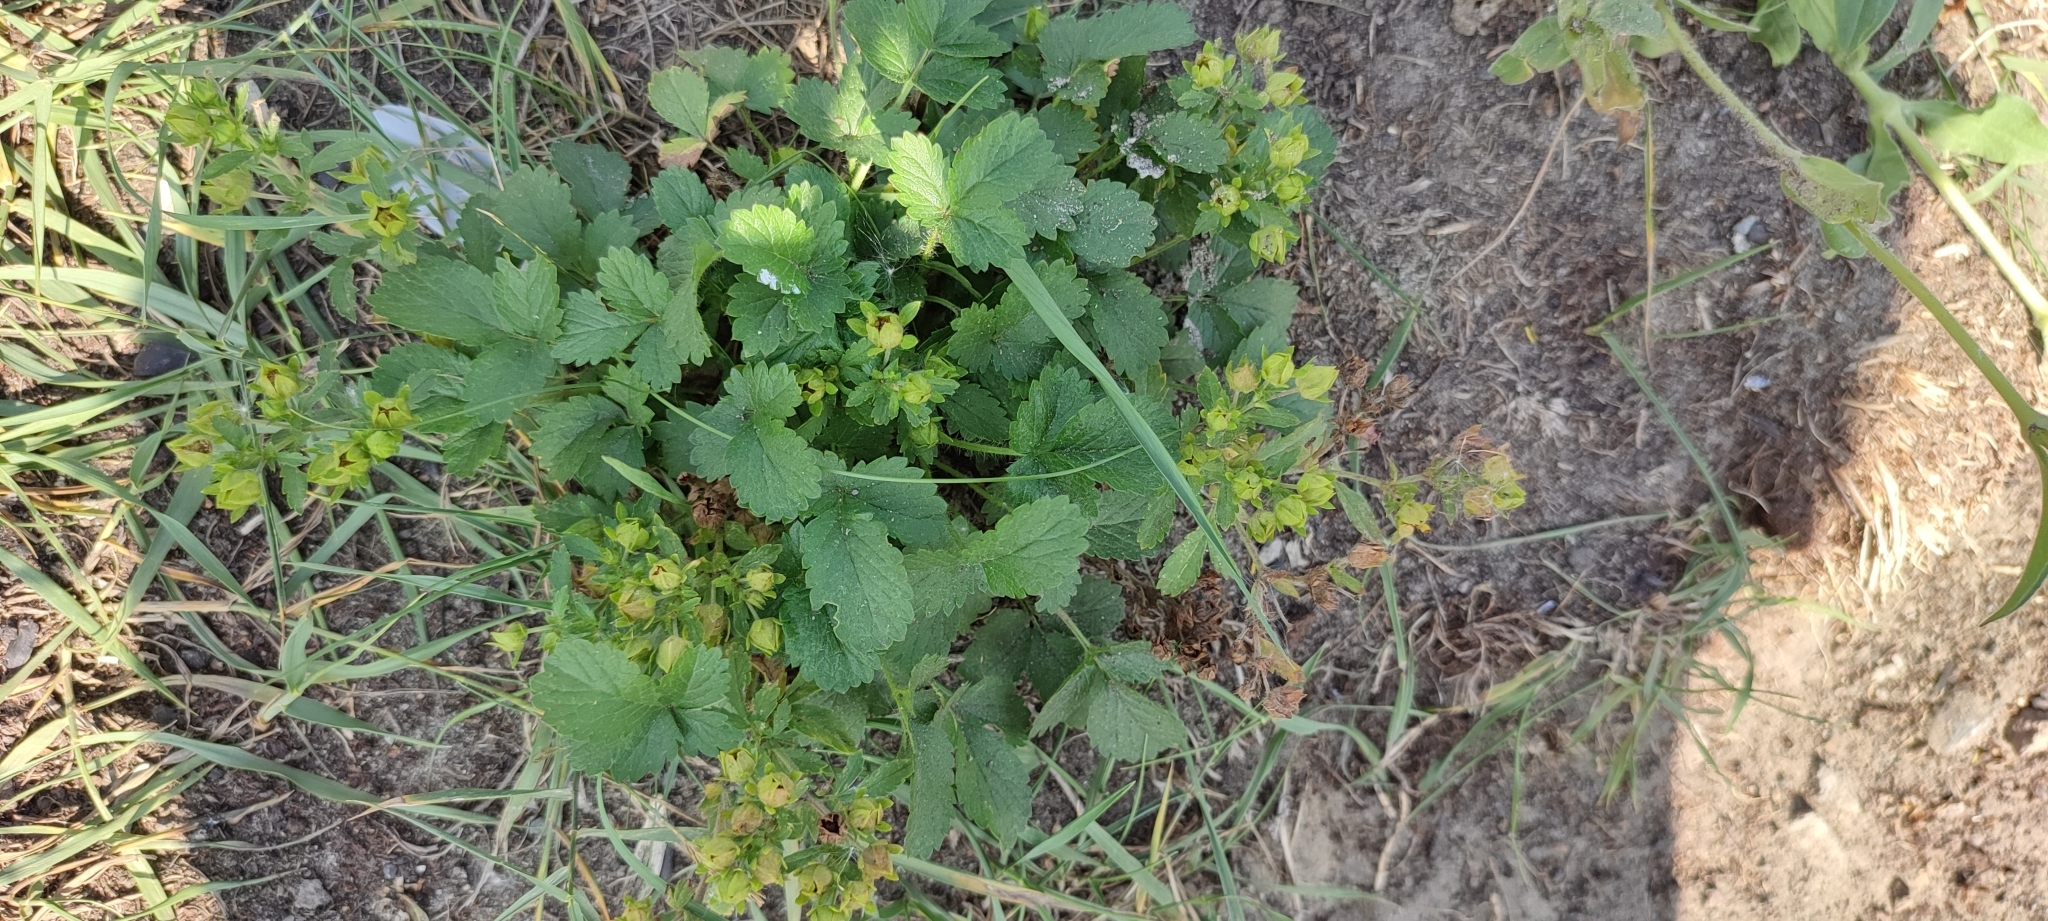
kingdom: Plantae
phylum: Tracheophyta
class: Magnoliopsida
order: Rosales
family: Rosaceae
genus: Potentilla
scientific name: Potentilla norvegica
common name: Ternate-leaved cinquefoil
